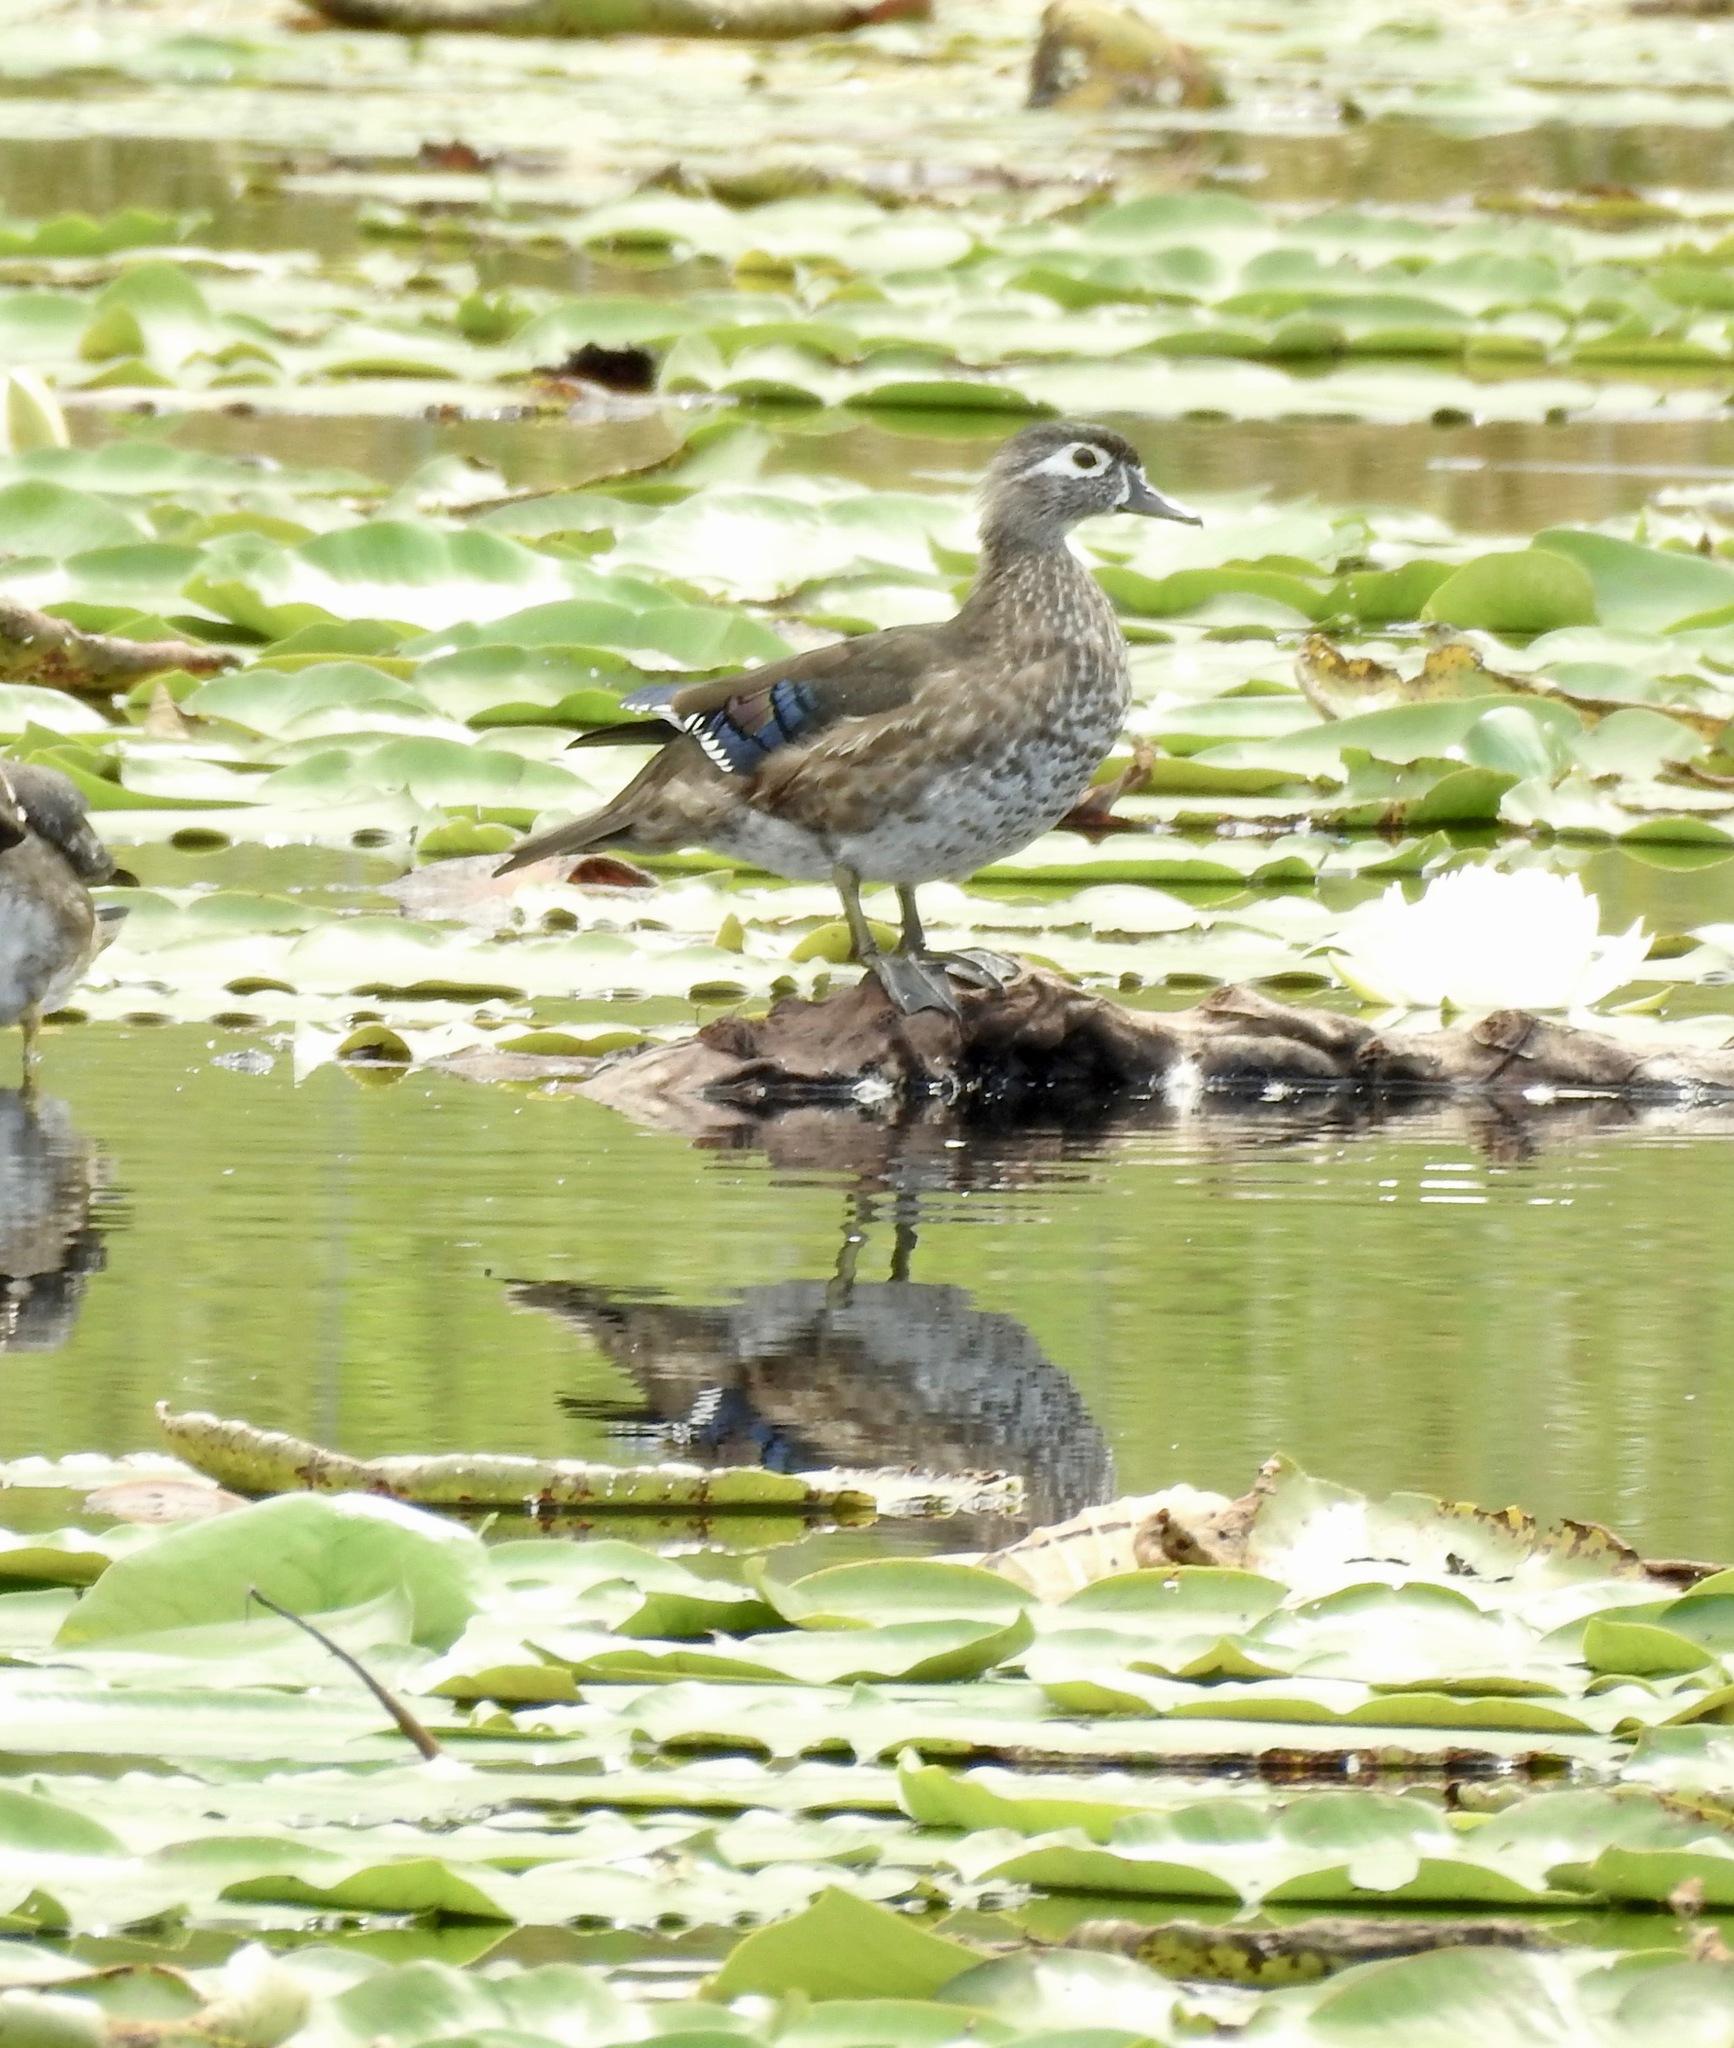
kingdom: Animalia
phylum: Chordata
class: Aves
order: Anseriformes
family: Anatidae
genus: Aix
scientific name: Aix sponsa
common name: Wood duck
